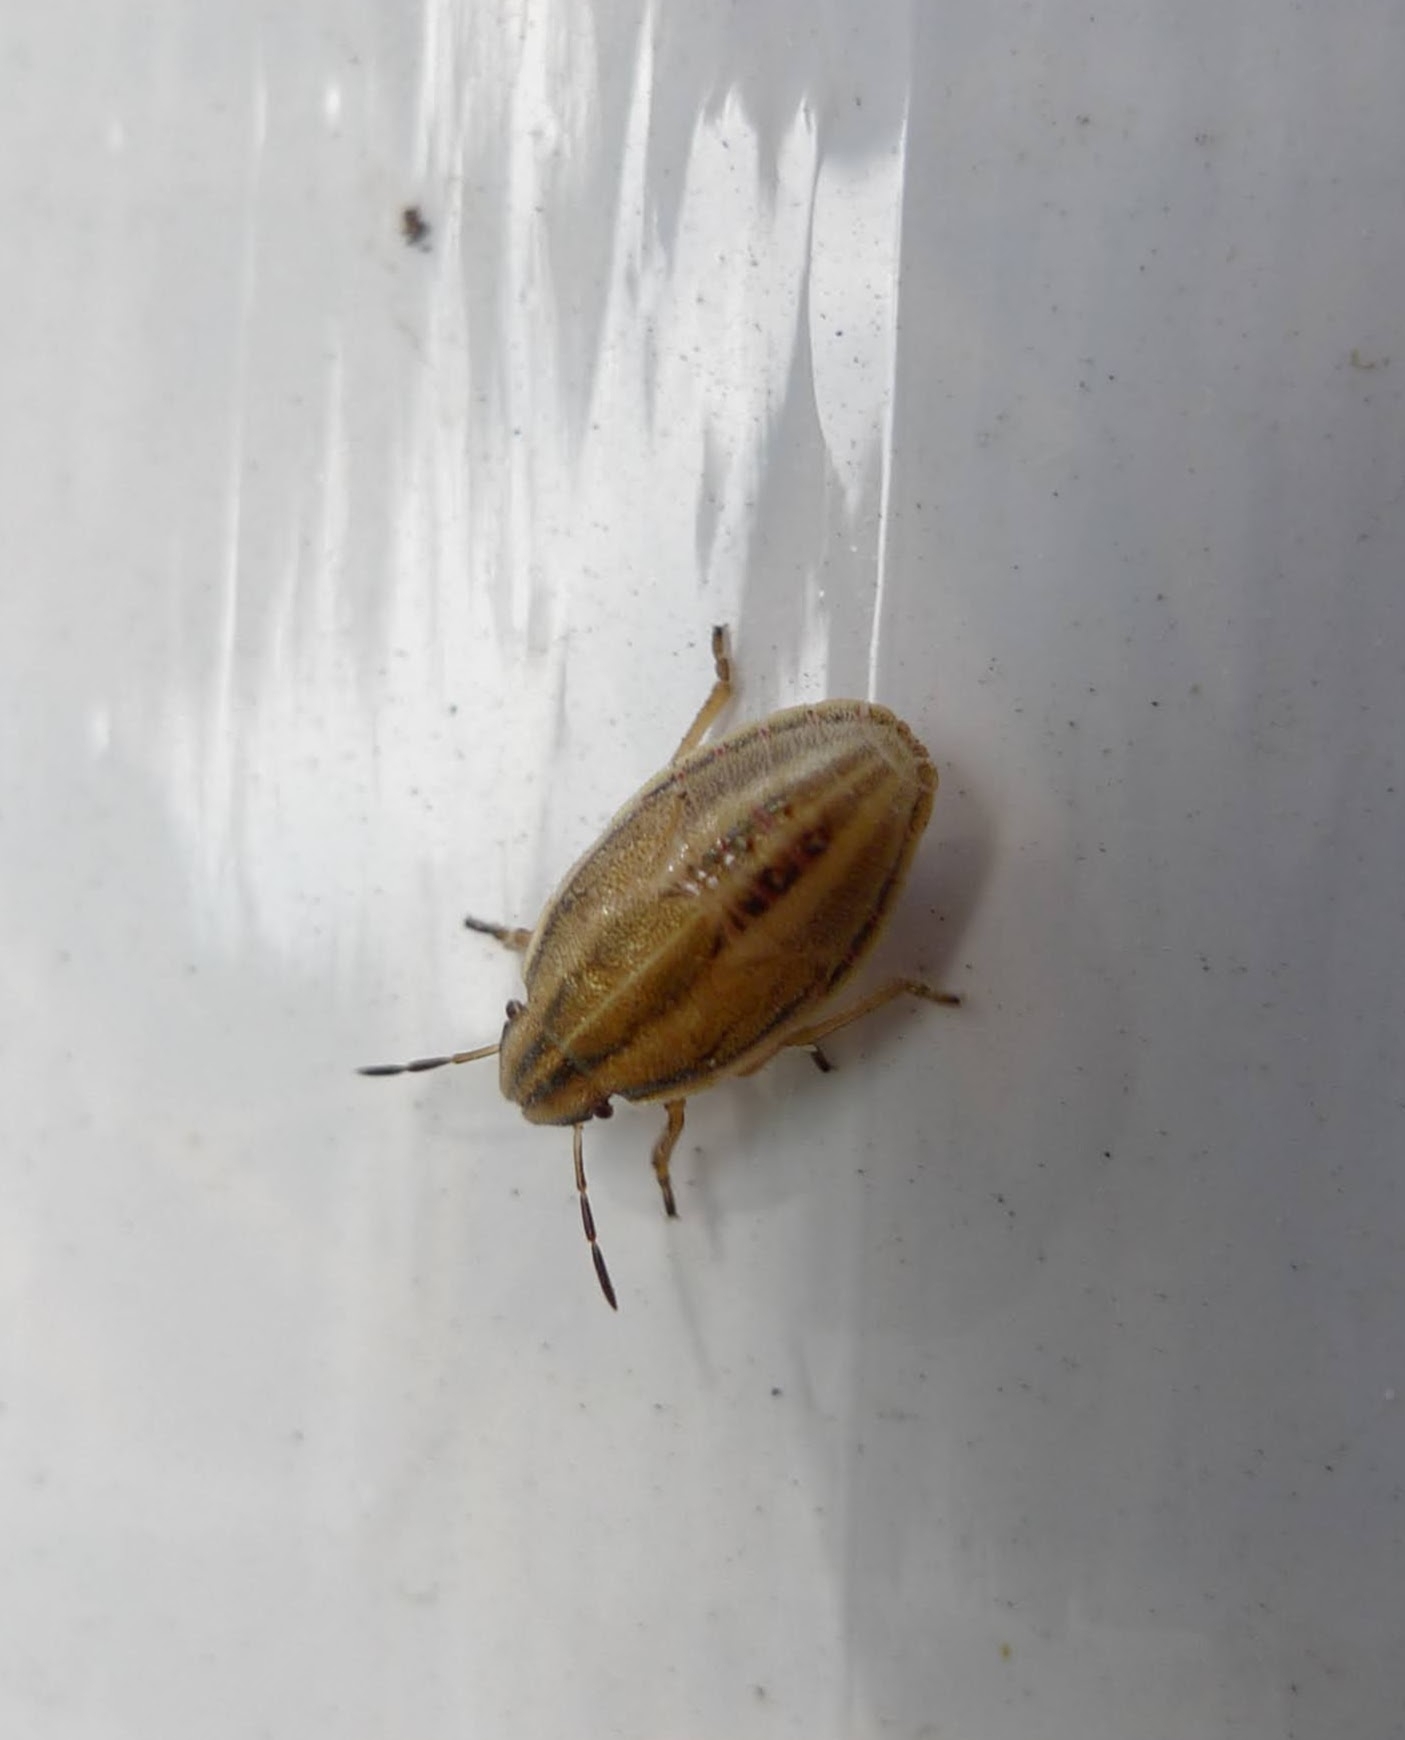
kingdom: Animalia
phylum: Arthropoda
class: Insecta
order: Hemiptera
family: Pentatomidae
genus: Aelia
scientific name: Aelia acuminata
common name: Bishop's mitre
